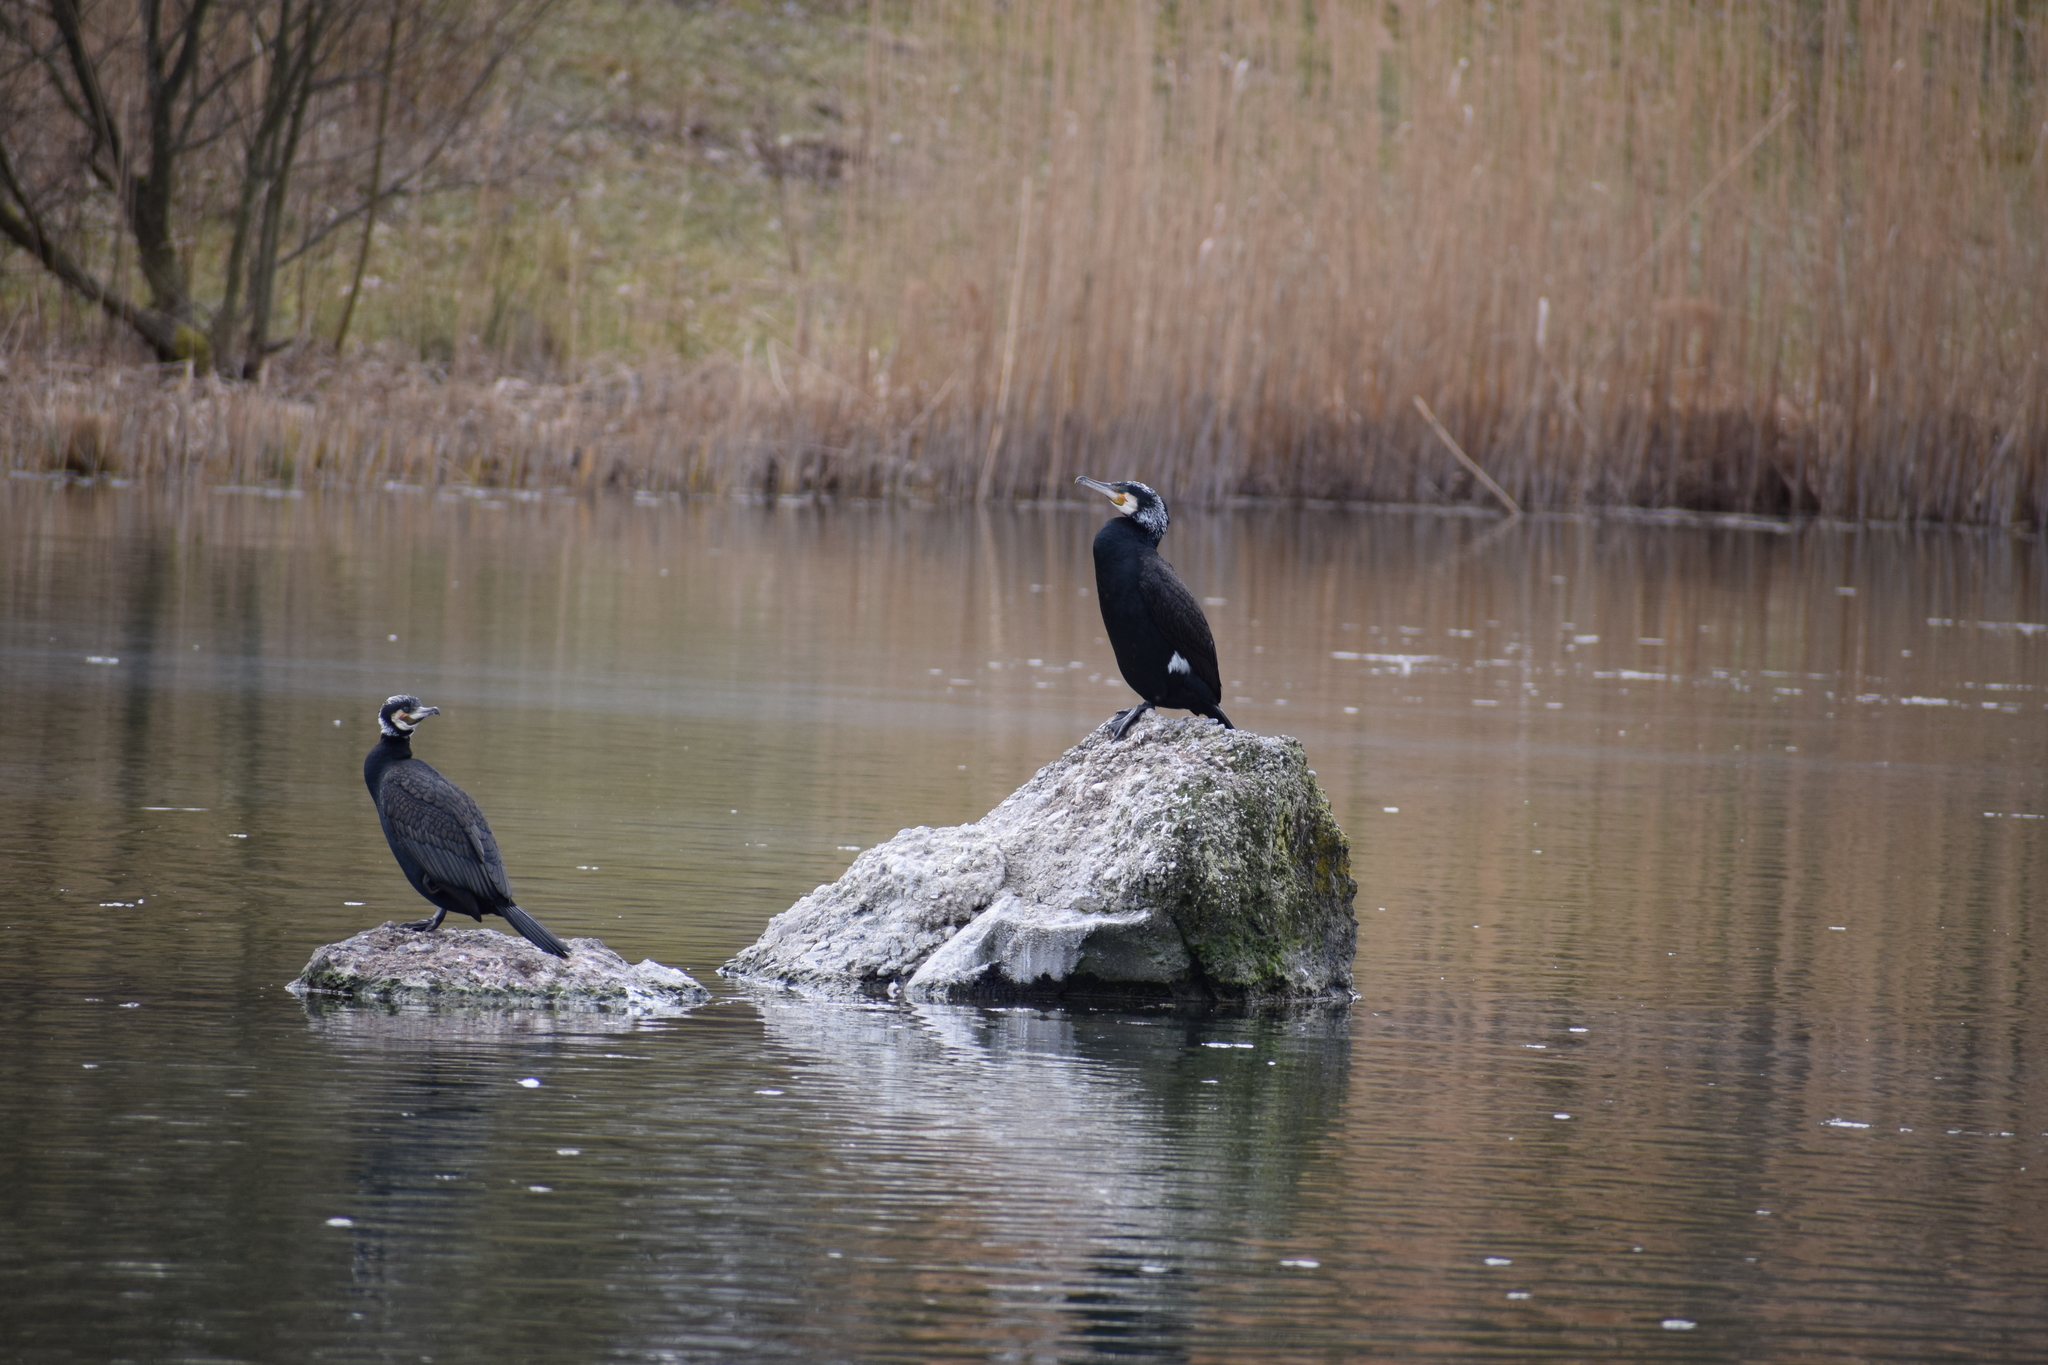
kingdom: Animalia
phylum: Chordata
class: Aves
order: Suliformes
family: Phalacrocoracidae
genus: Phalacrocorax
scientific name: Phalacrocorax carbo
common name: Great cormorant
